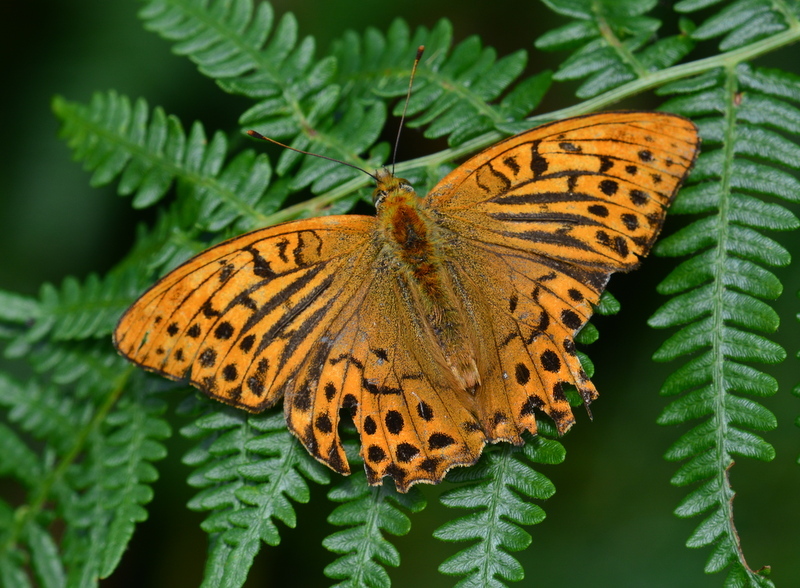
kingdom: Animalia
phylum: Arthropoda
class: Insecta
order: Lepidoptera
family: Nymphalidae
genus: Argynnis
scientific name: Argynnis paphia
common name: Silver-washed fritillary
